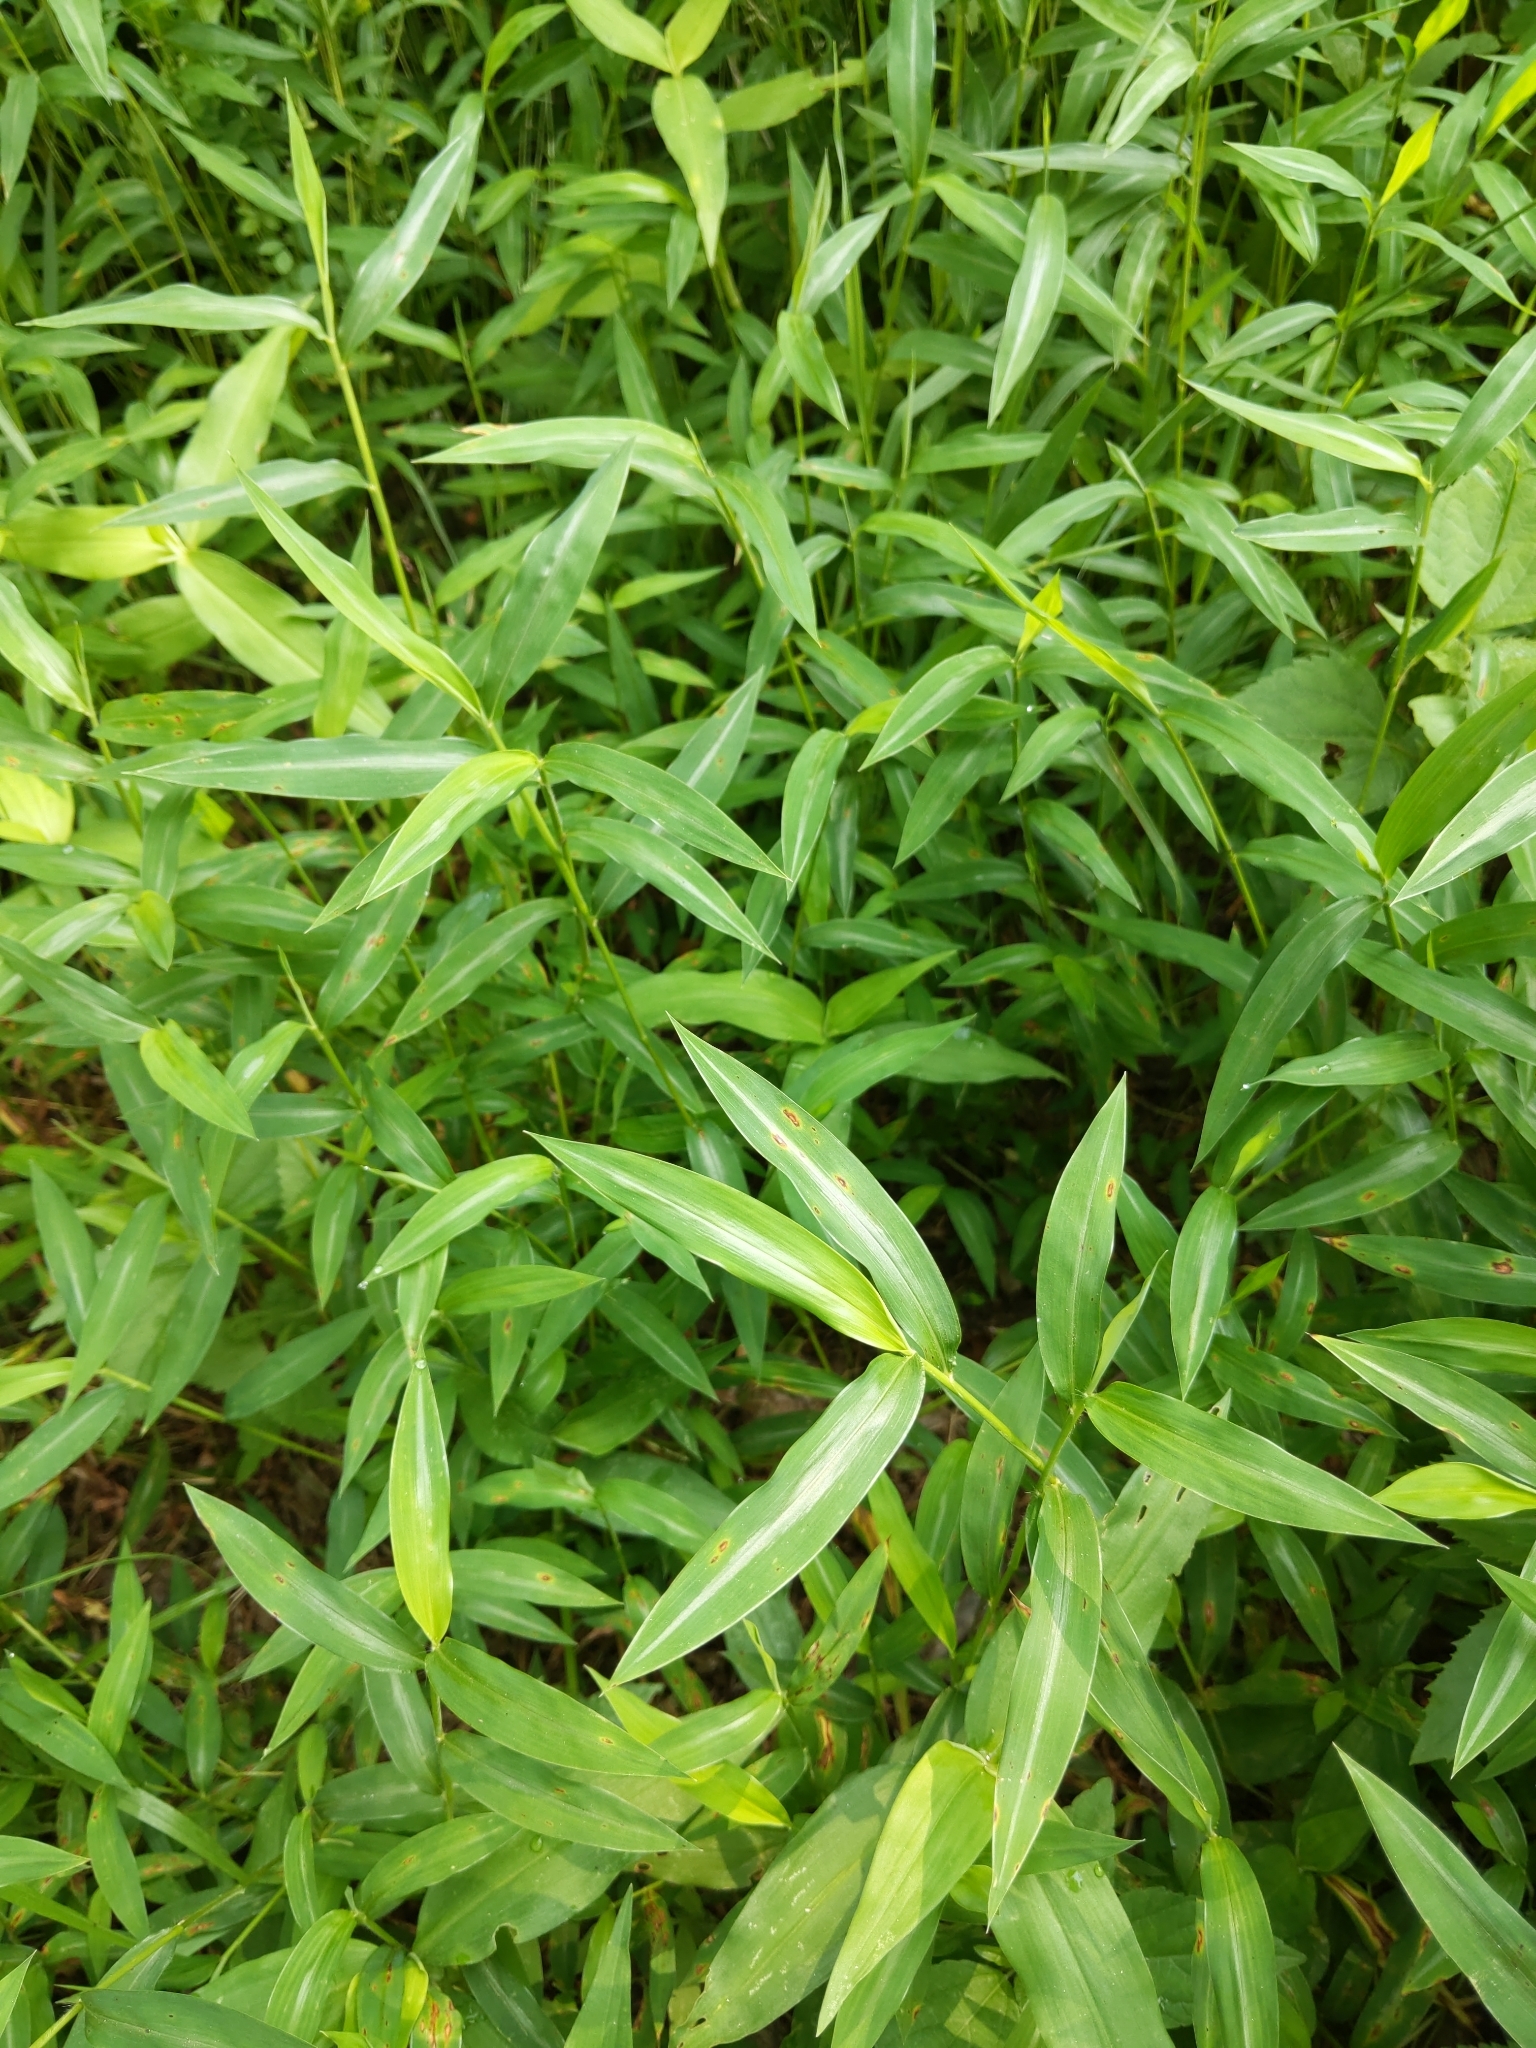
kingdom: Plantae
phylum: Tracheophyta
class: Liliopsida
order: Poales
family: Poaceae
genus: Microstegium
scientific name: Microstegium vimineum
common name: Japanese stiltgrass
